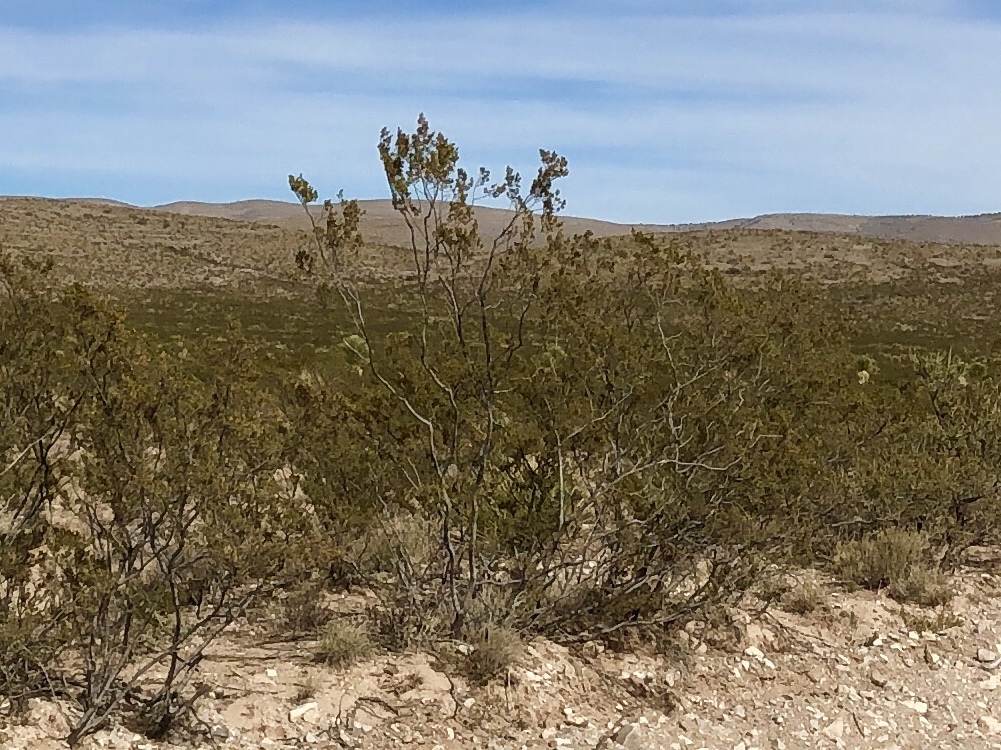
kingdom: Plantae
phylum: Tracheophyta
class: Magnoliopsida
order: Zygophyllales
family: Zygophyllaceae
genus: Larrea
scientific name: Larrea tridentata
